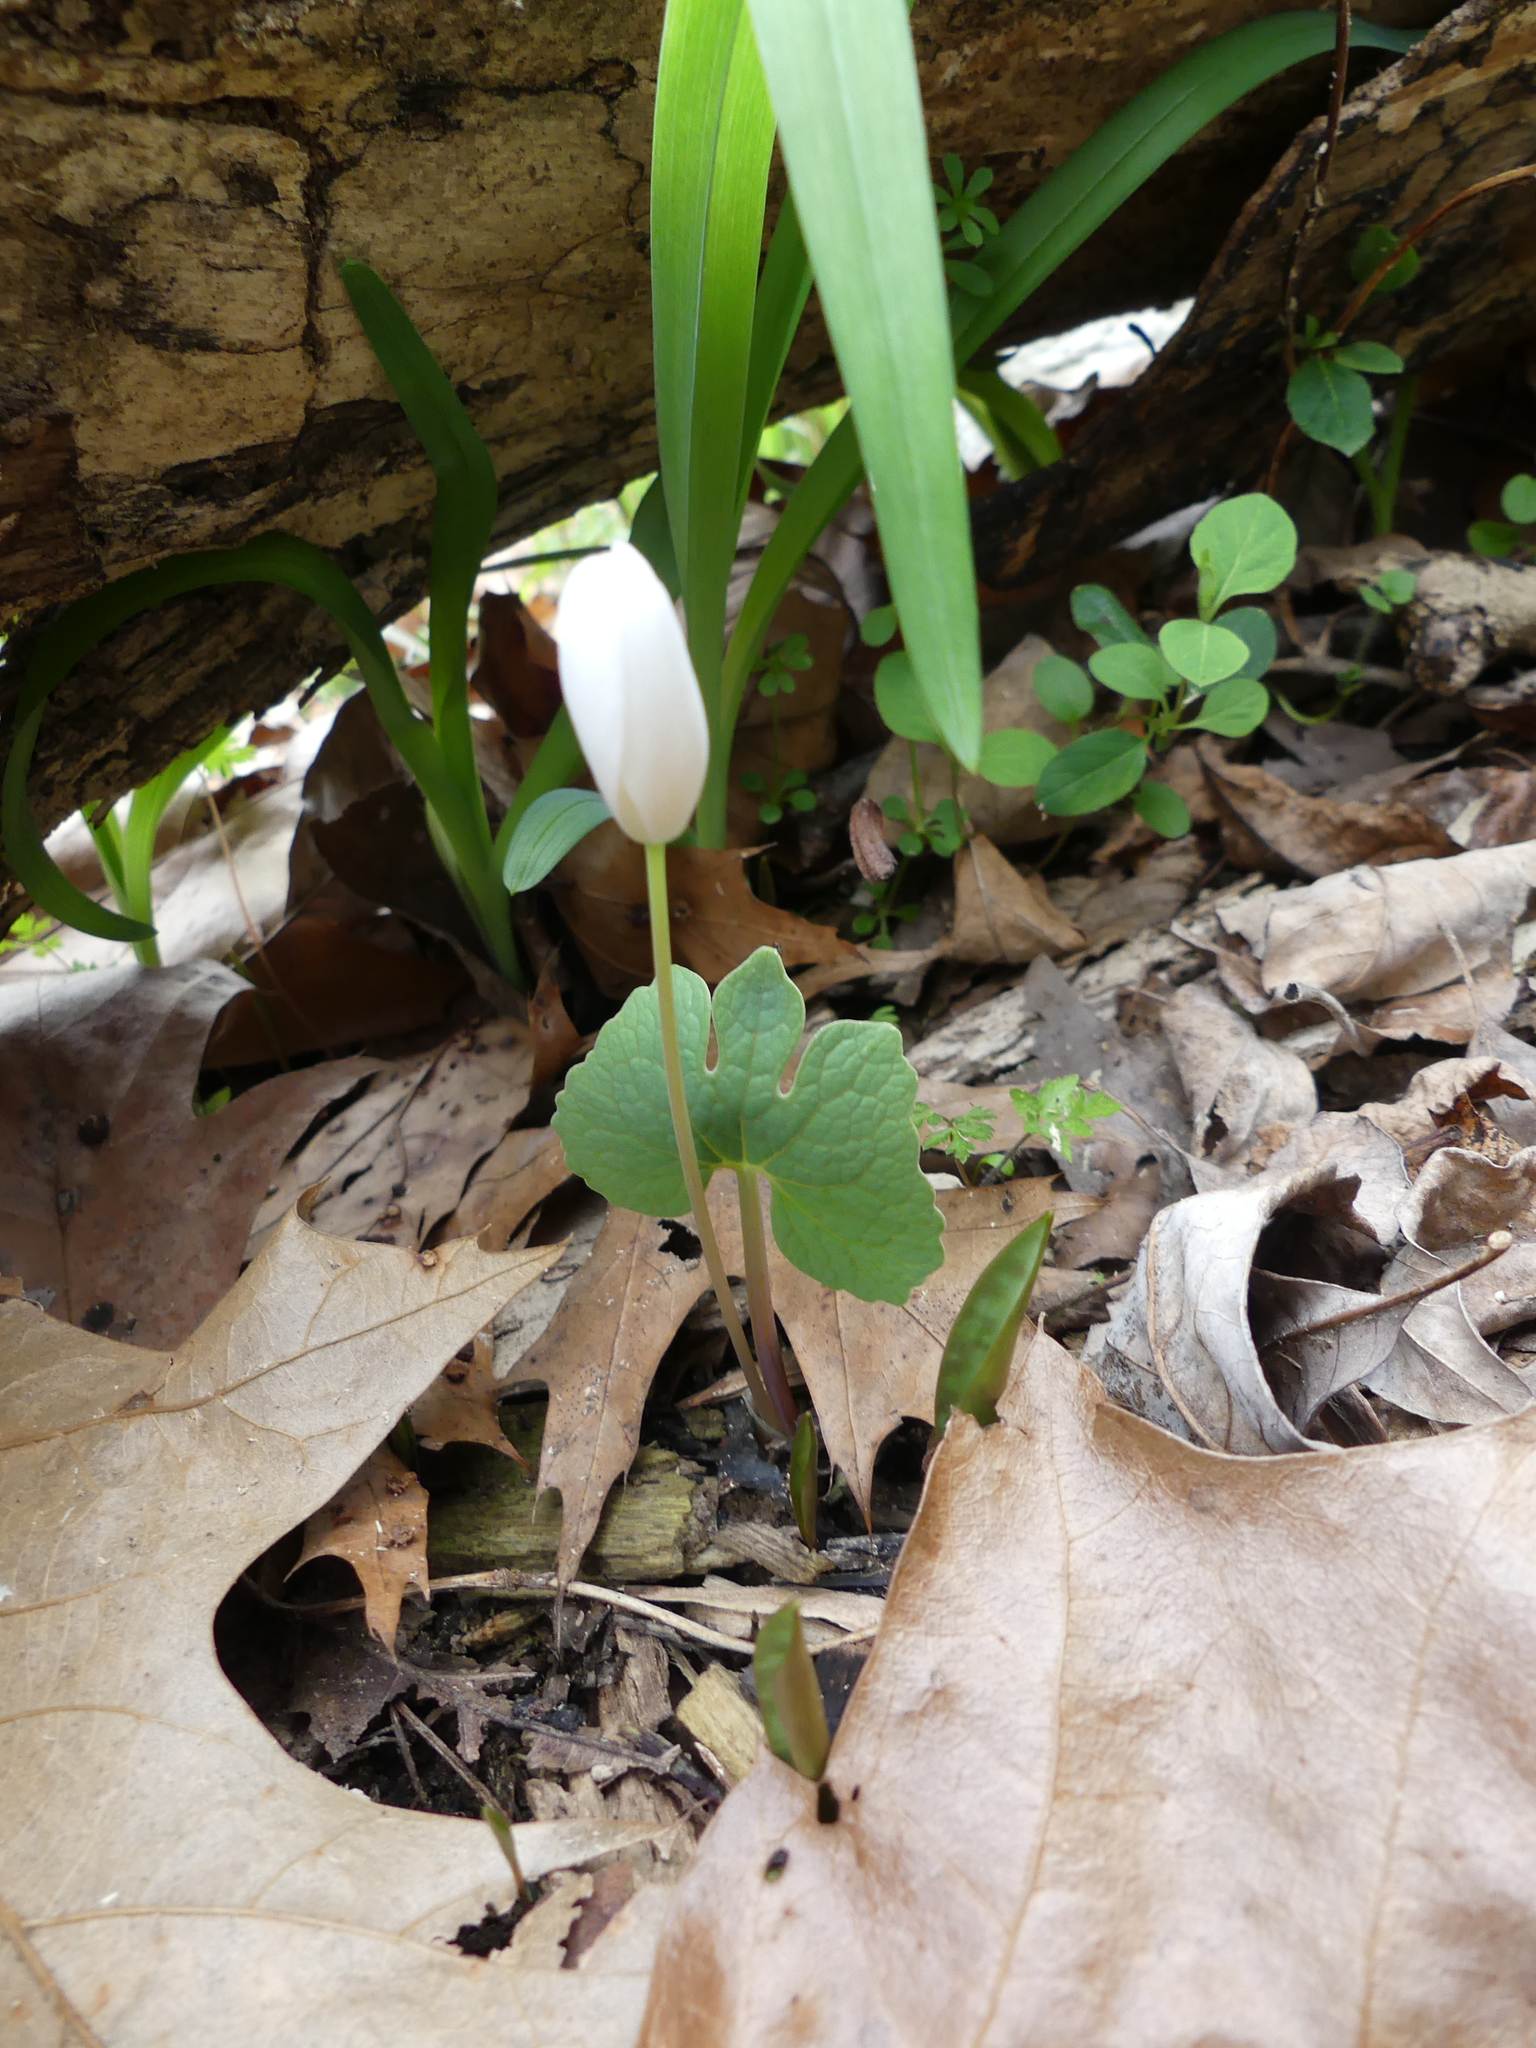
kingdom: Plantae
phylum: Tracheophyta
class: Magnoliopsida
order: Ranunculales
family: Papaveraceae
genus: Sanguinaria
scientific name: Sanguinaria canadensis
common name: Bloodroot
